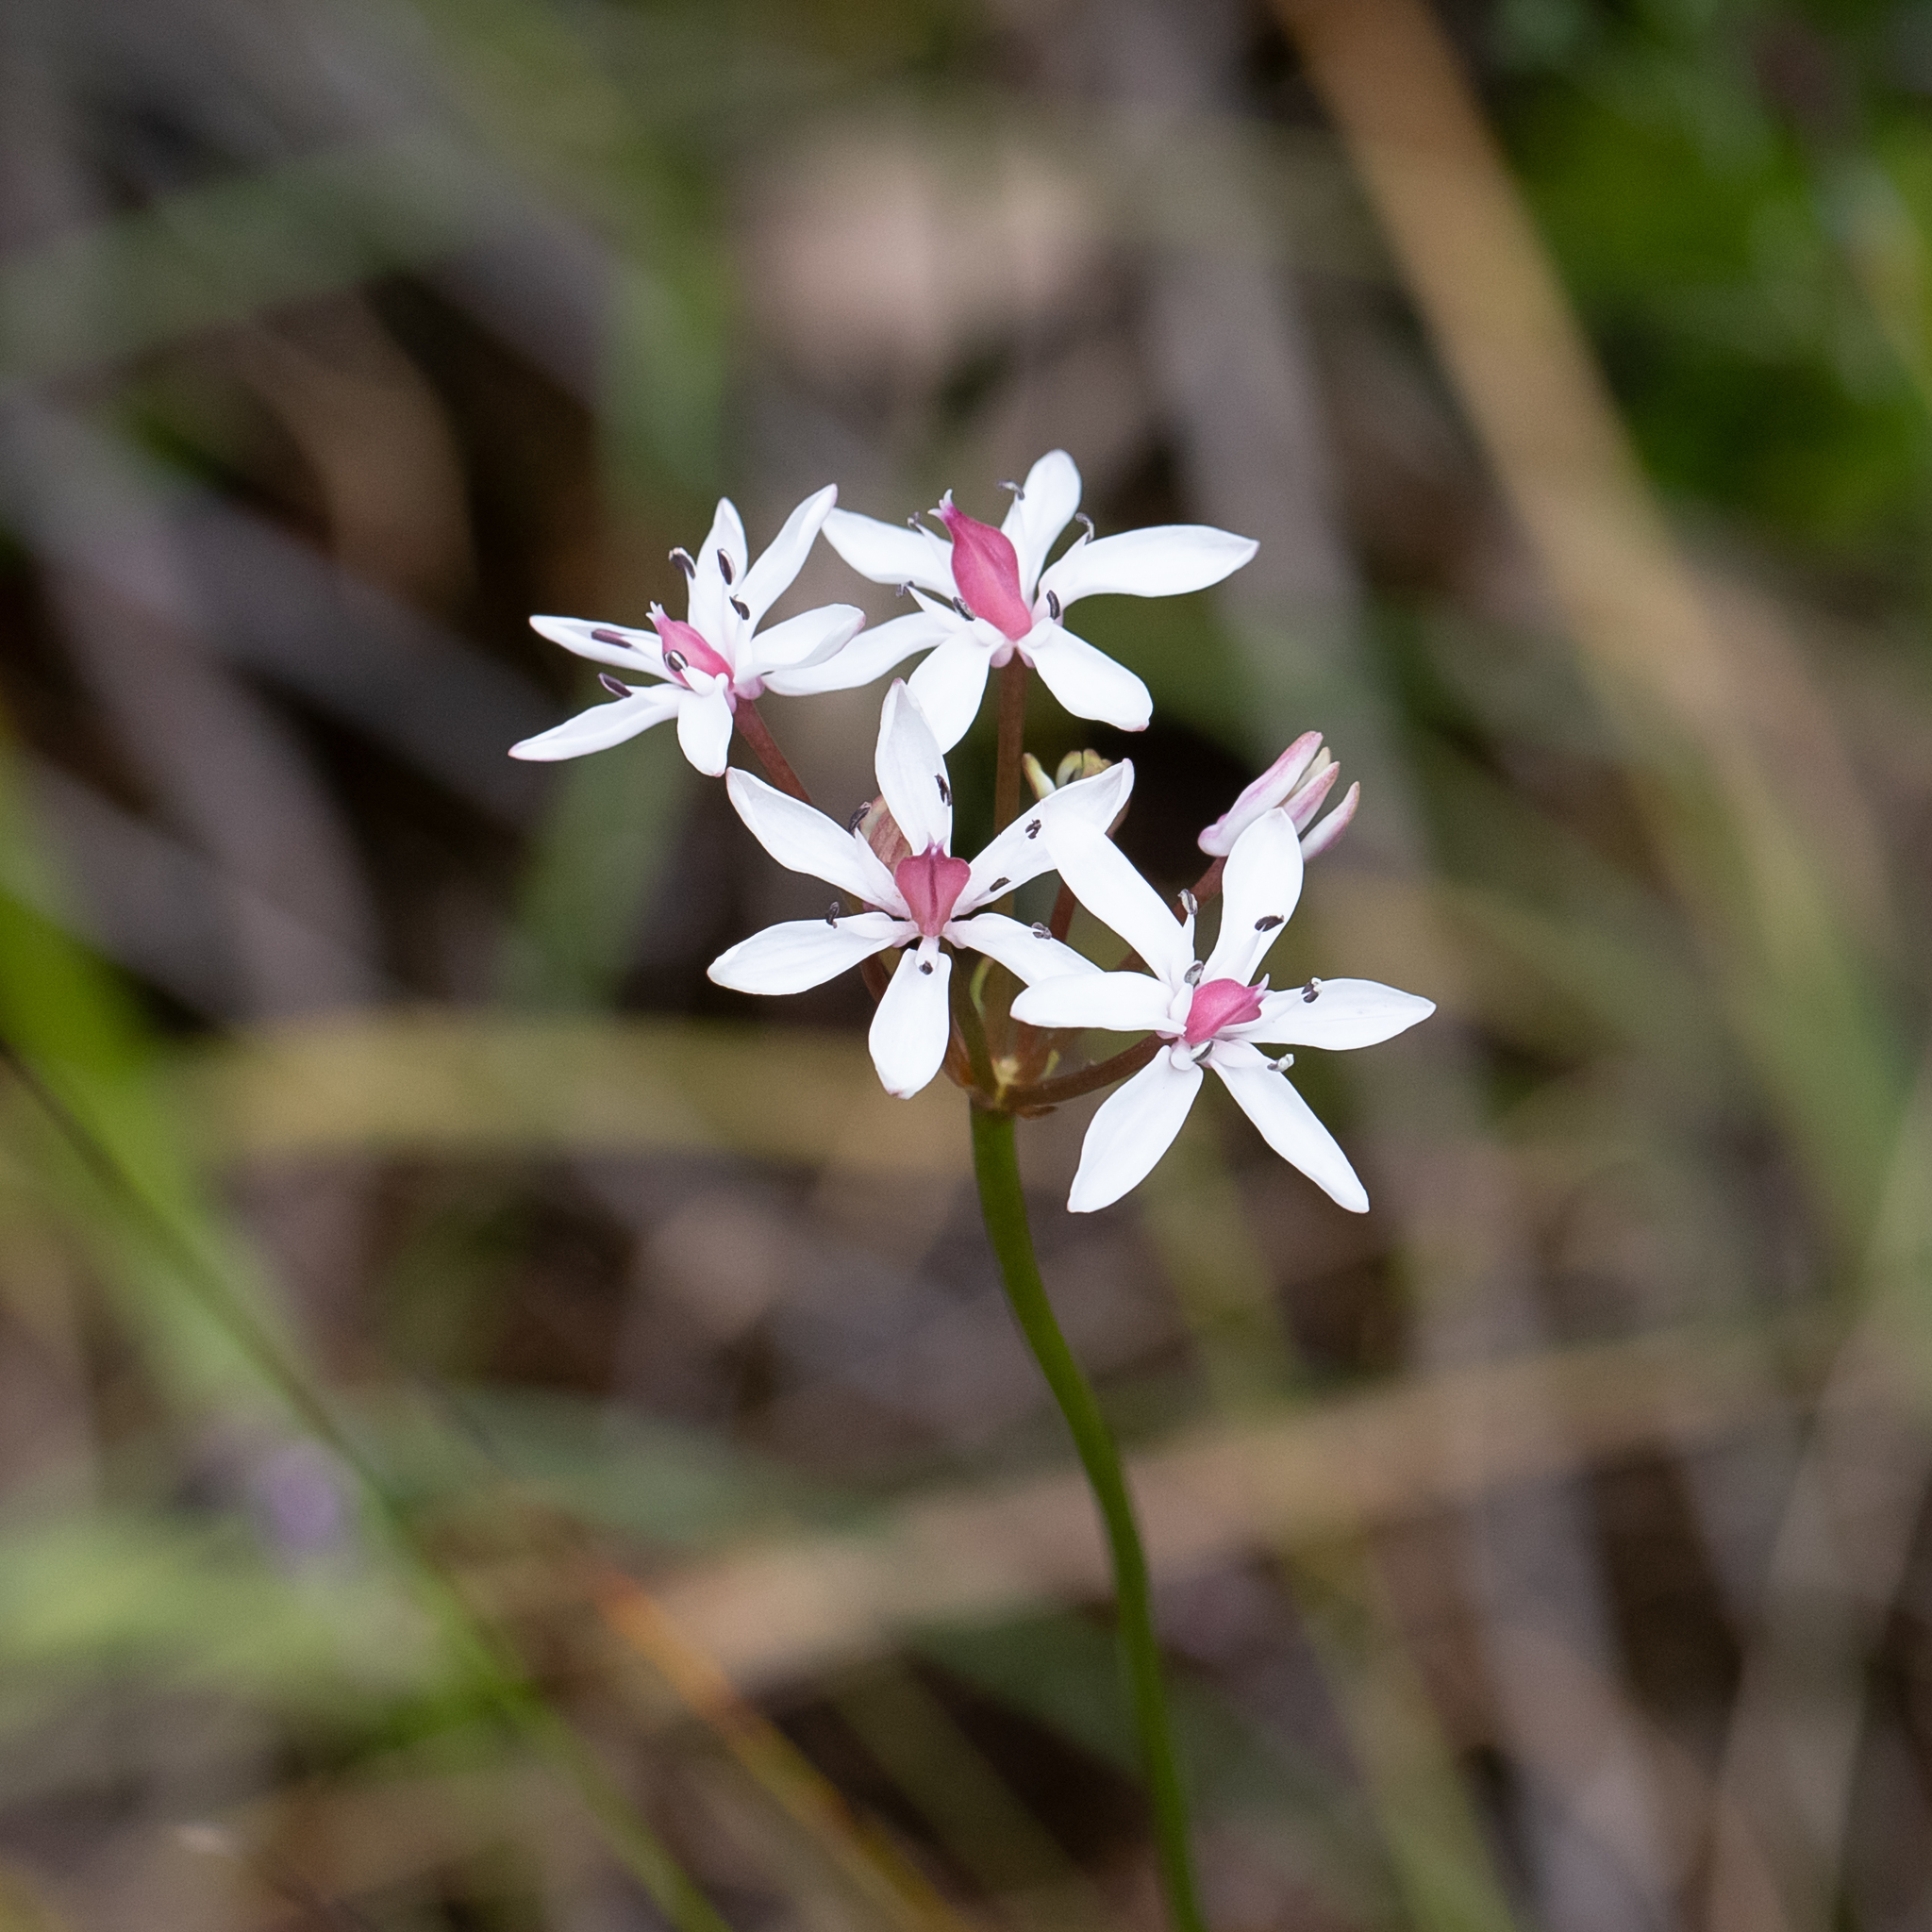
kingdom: Plantae
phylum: Tracheophyta
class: Liliopsida
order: Liliales
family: Colchicaceae
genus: Burchardia
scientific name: Burchardia umbellata
